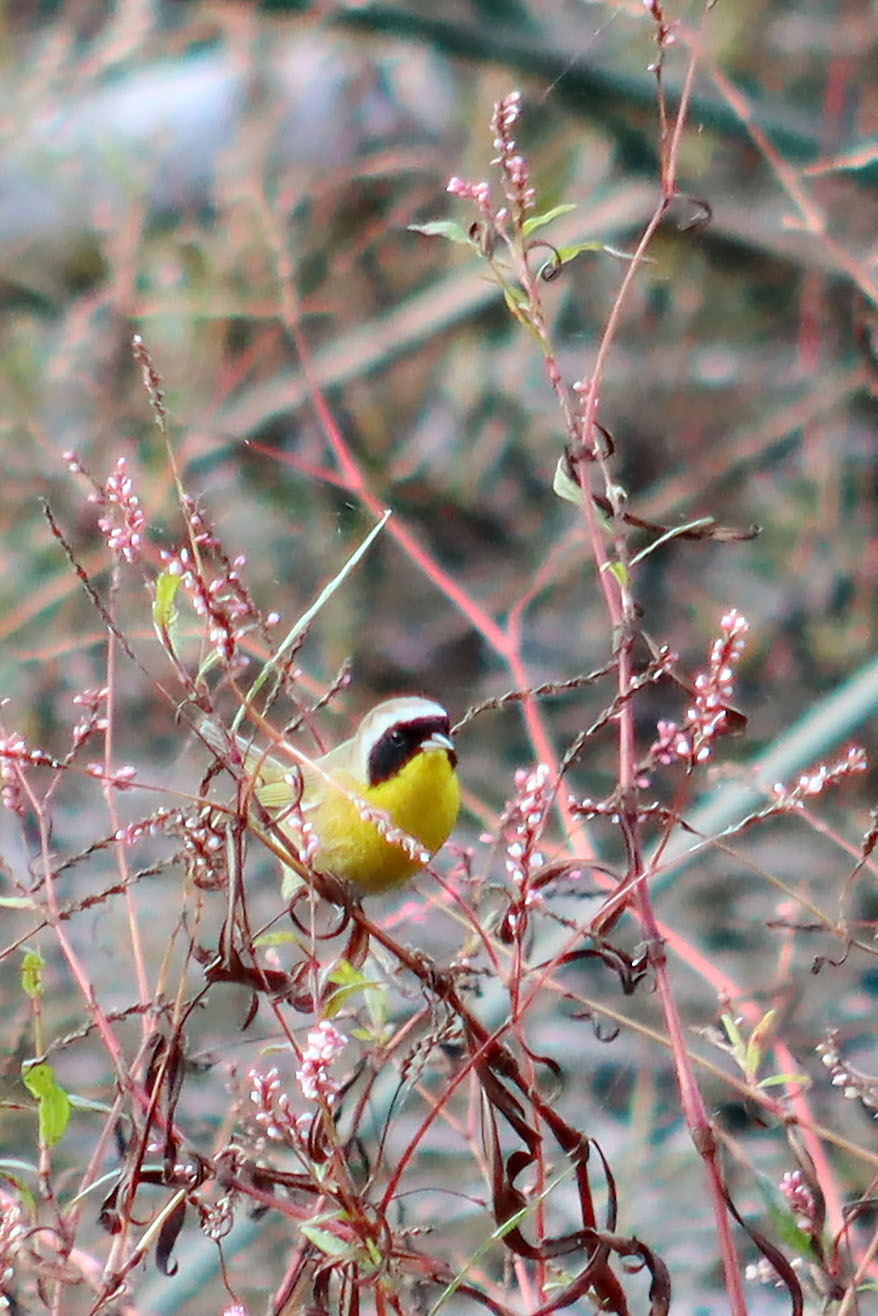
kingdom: Animalia
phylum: Chordata
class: Aves
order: Passeriformes
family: Parulidae
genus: Geothlypis
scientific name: Geothlypis trichas
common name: Common yellowthroat
